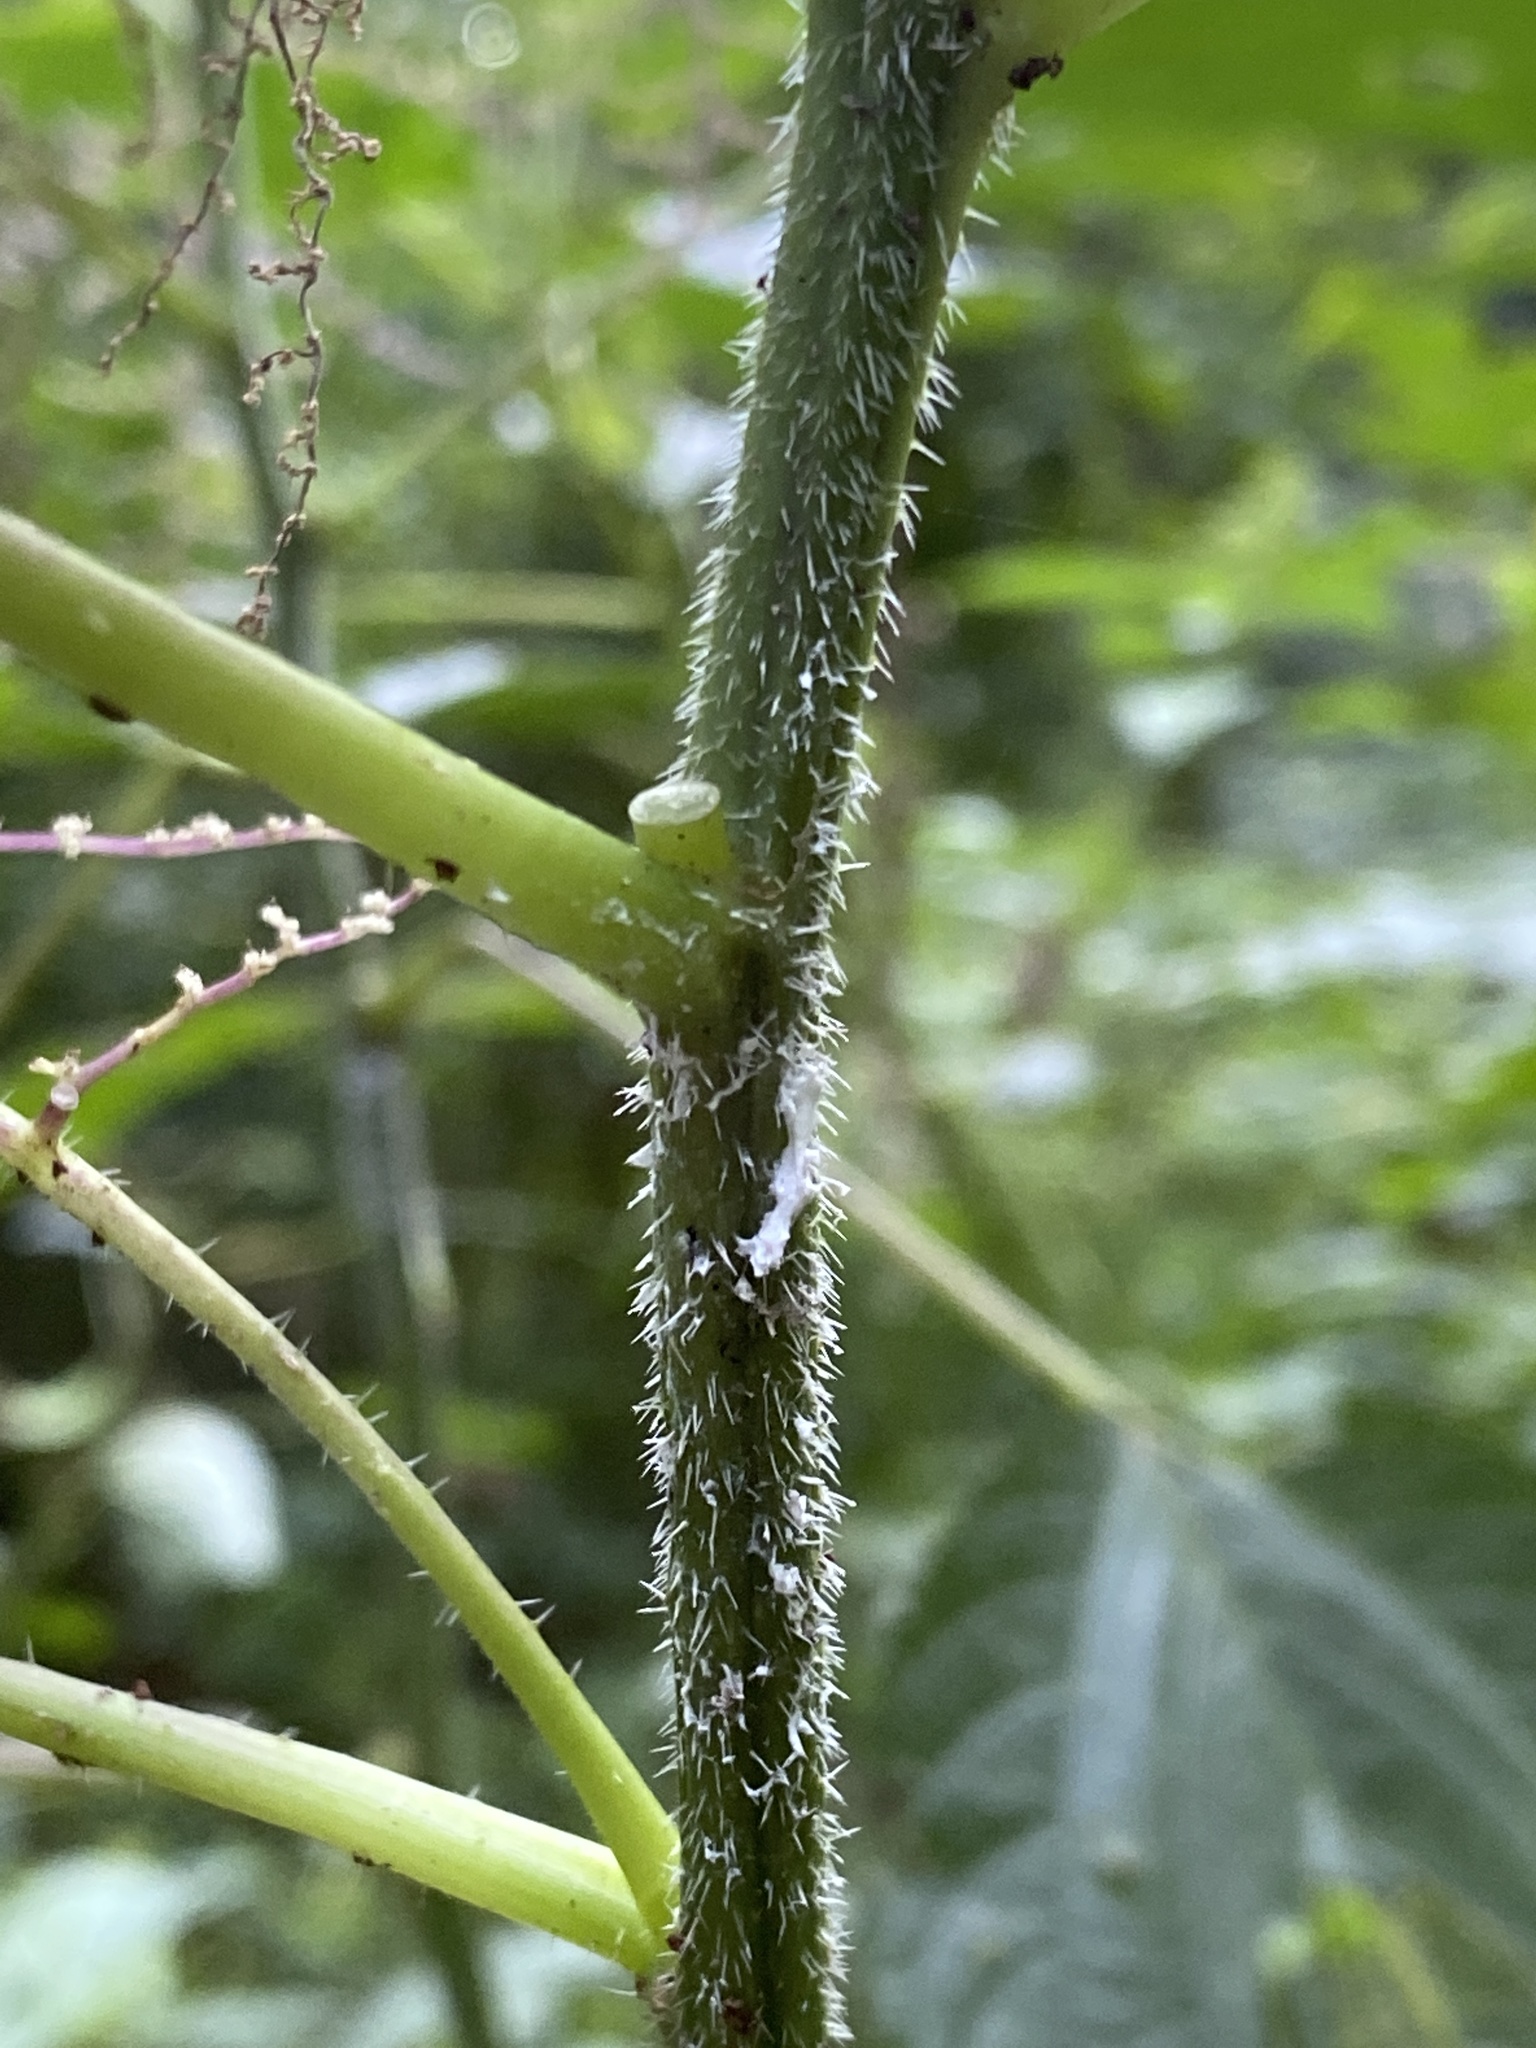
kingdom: Plantae
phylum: Tracheophyta
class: Magnoliopsida
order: Rosales
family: Urticaceae
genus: Laportea
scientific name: Laportea canadensis
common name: Canada nettle
